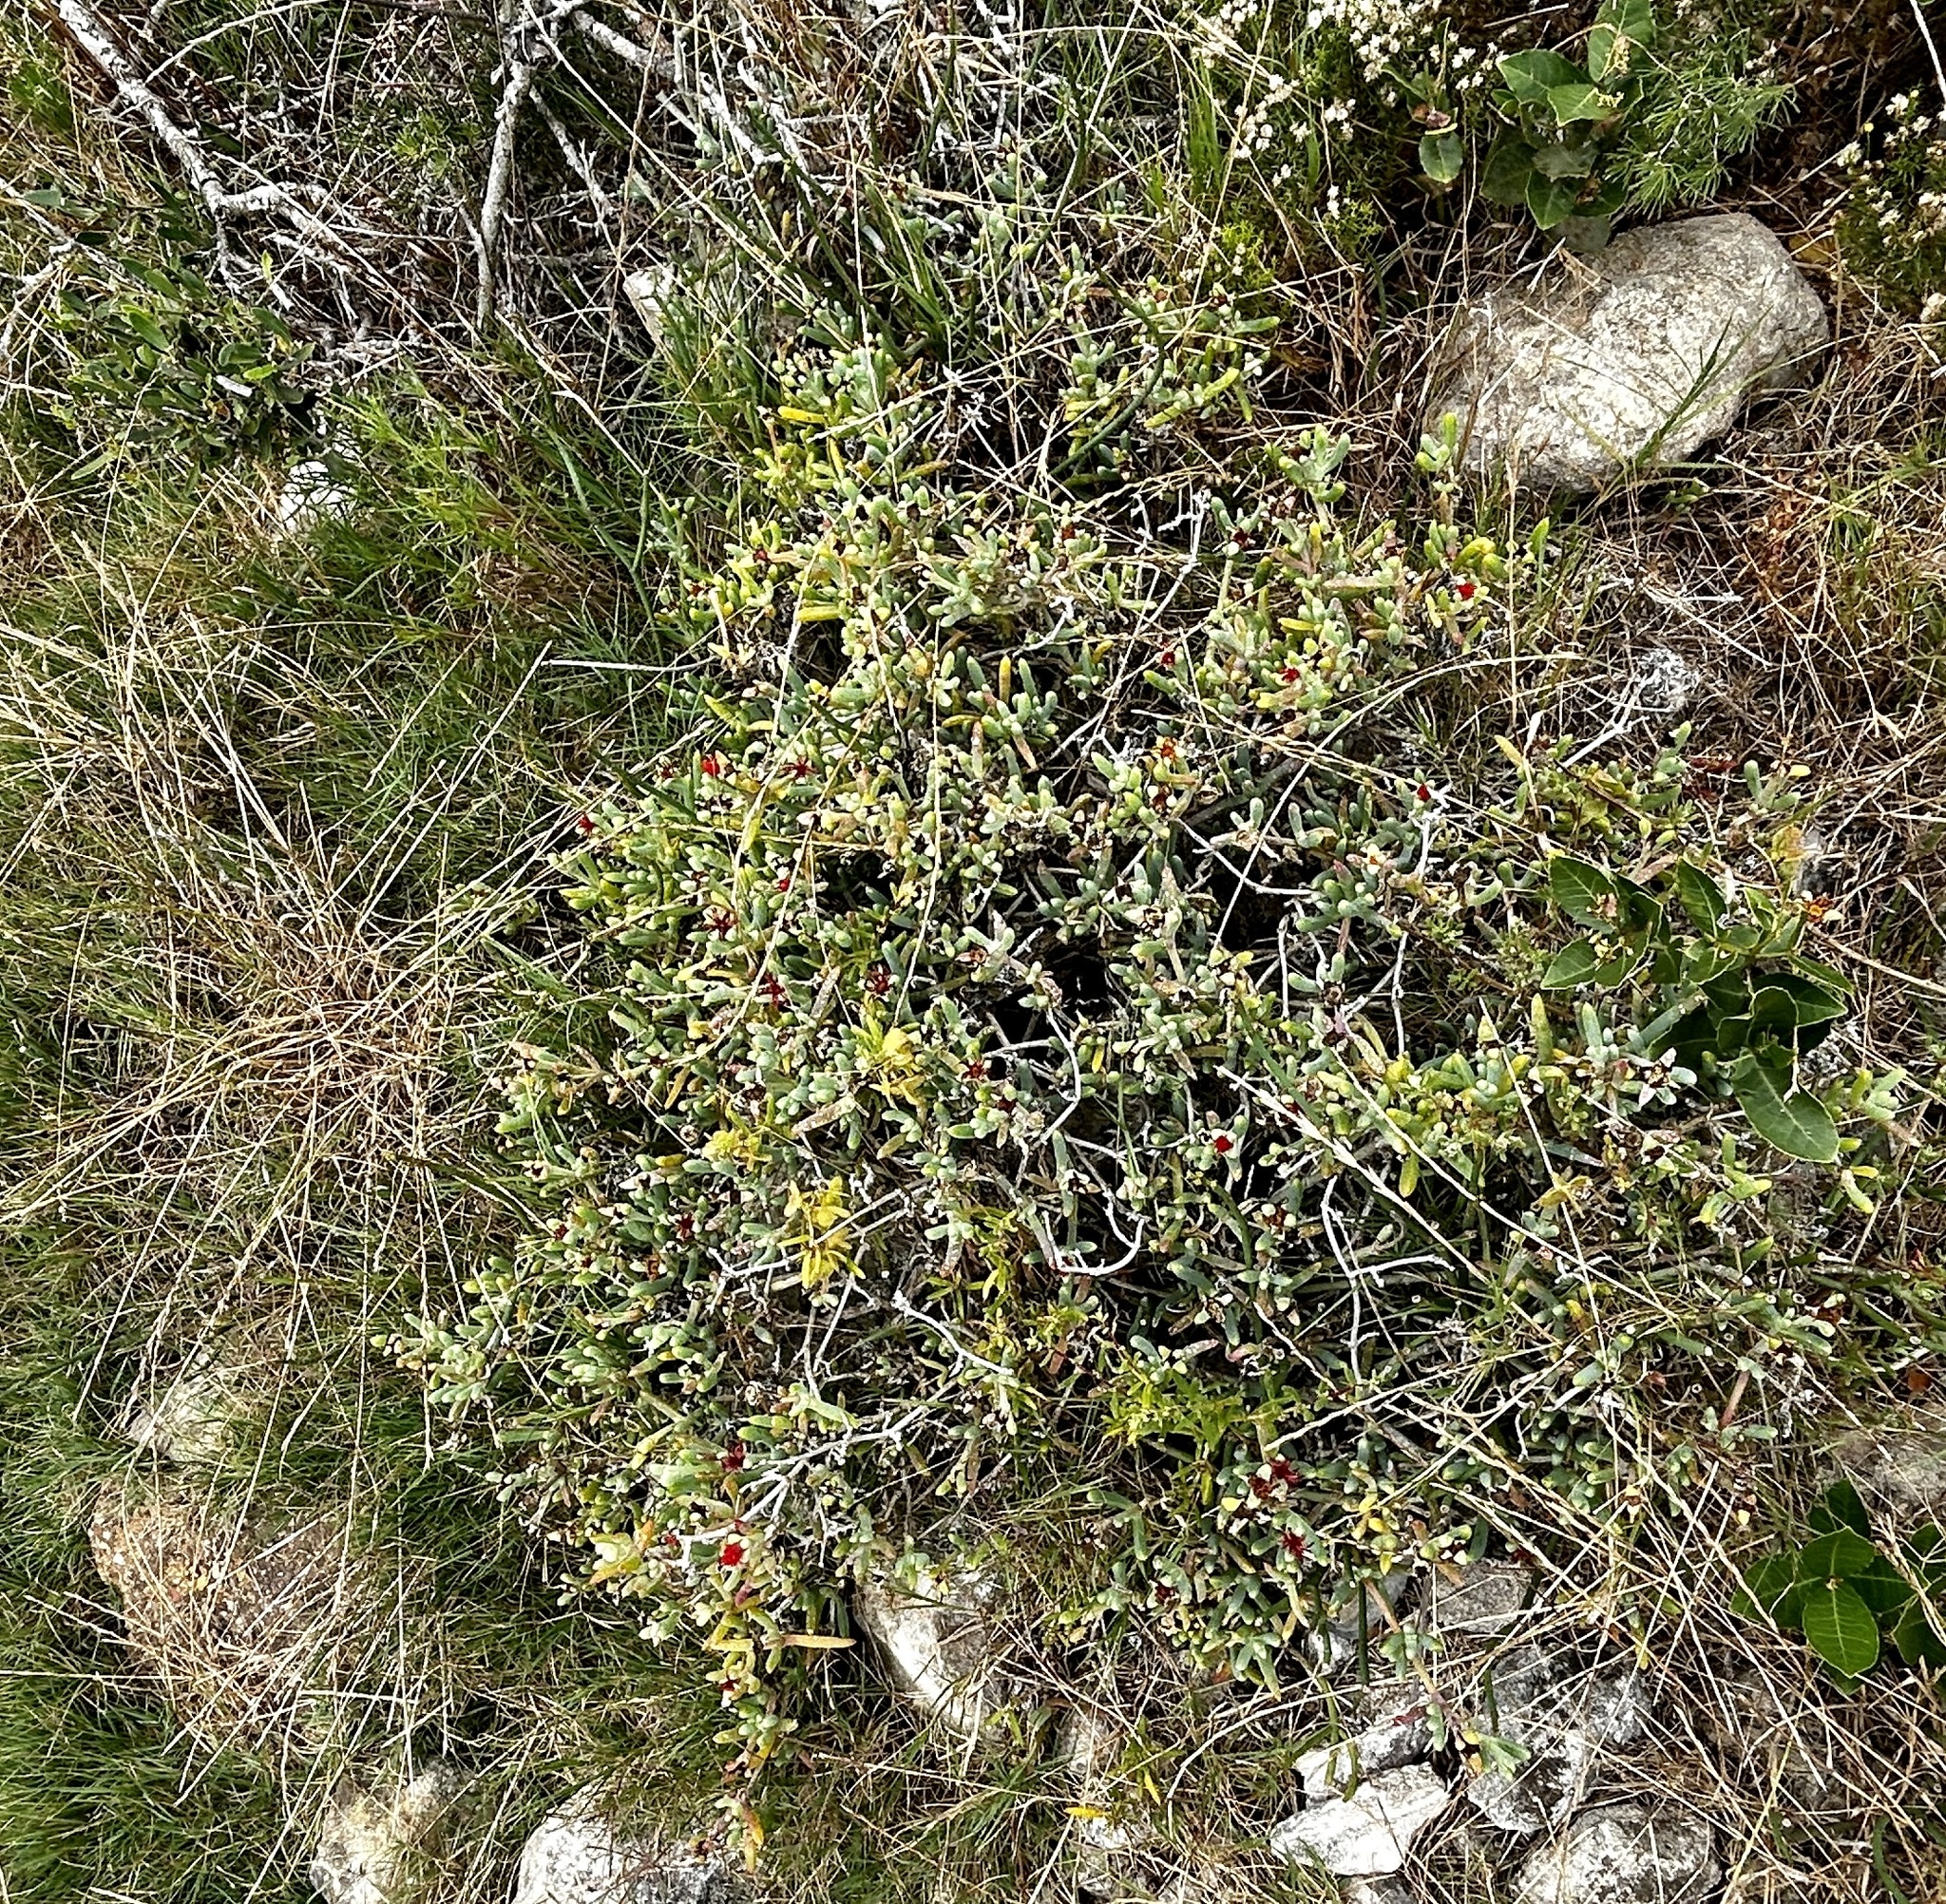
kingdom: Plantae
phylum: Tracheophyta
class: Magnoliopsida
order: Caryophyllales
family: Aizoaceae
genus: Malephora
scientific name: Malephora crocea
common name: Coppery mesemb
